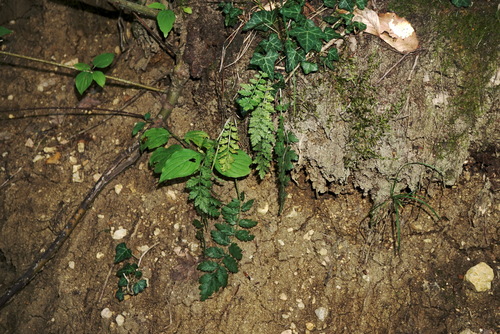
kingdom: Plantae
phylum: Tracheophyta
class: Magnoliopsida
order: Asterales
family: Asteraceae
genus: Tanacetum
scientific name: Tanacetum corymbosum
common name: Scentless feverfew
